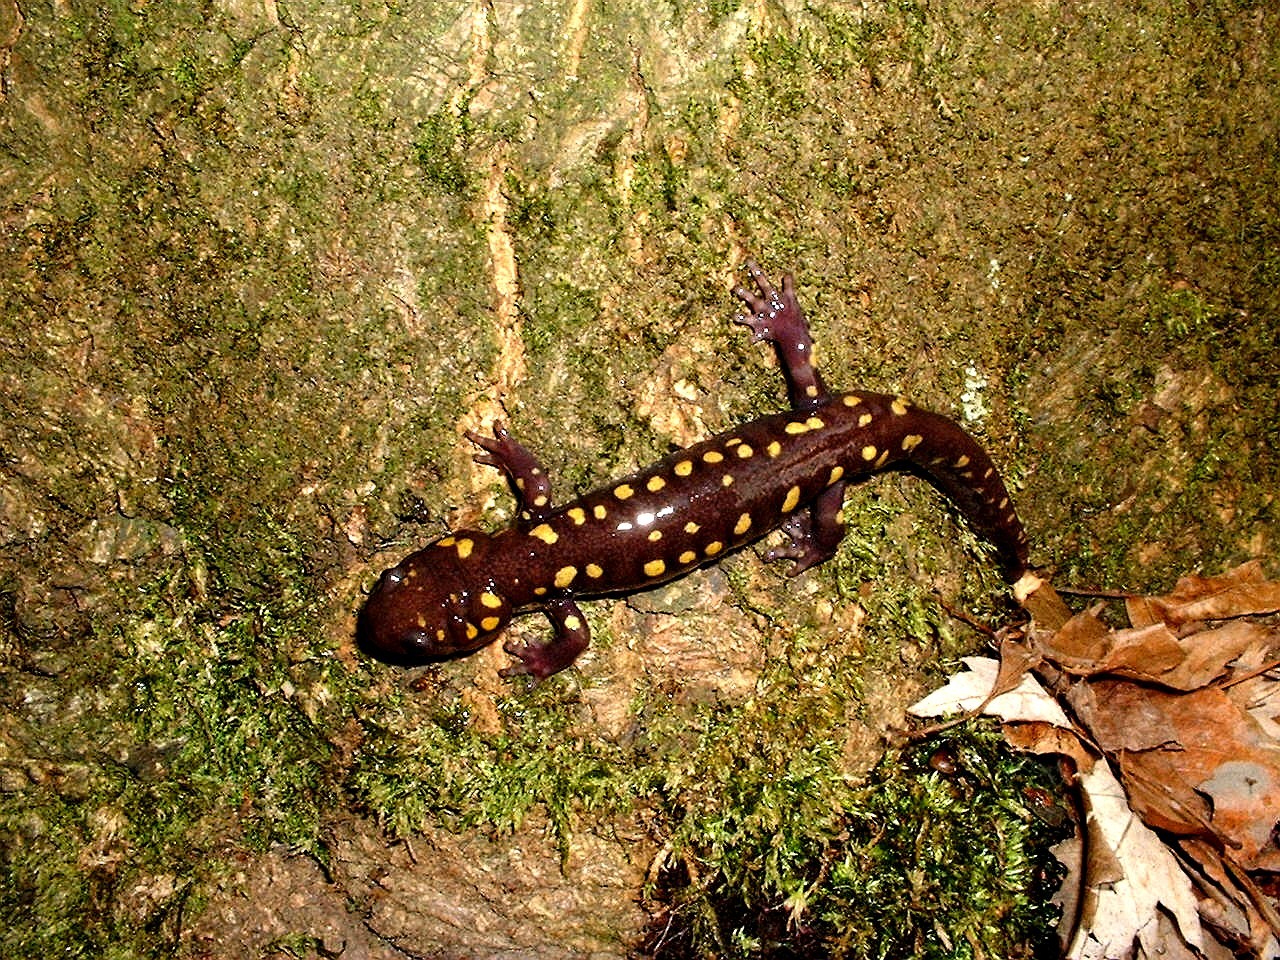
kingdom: Animalia
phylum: Chordata
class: Amphibia
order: Caudata
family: Ambystomatidae
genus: Ambystoma
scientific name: Ambystoma maculatum
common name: Spotted salamander
